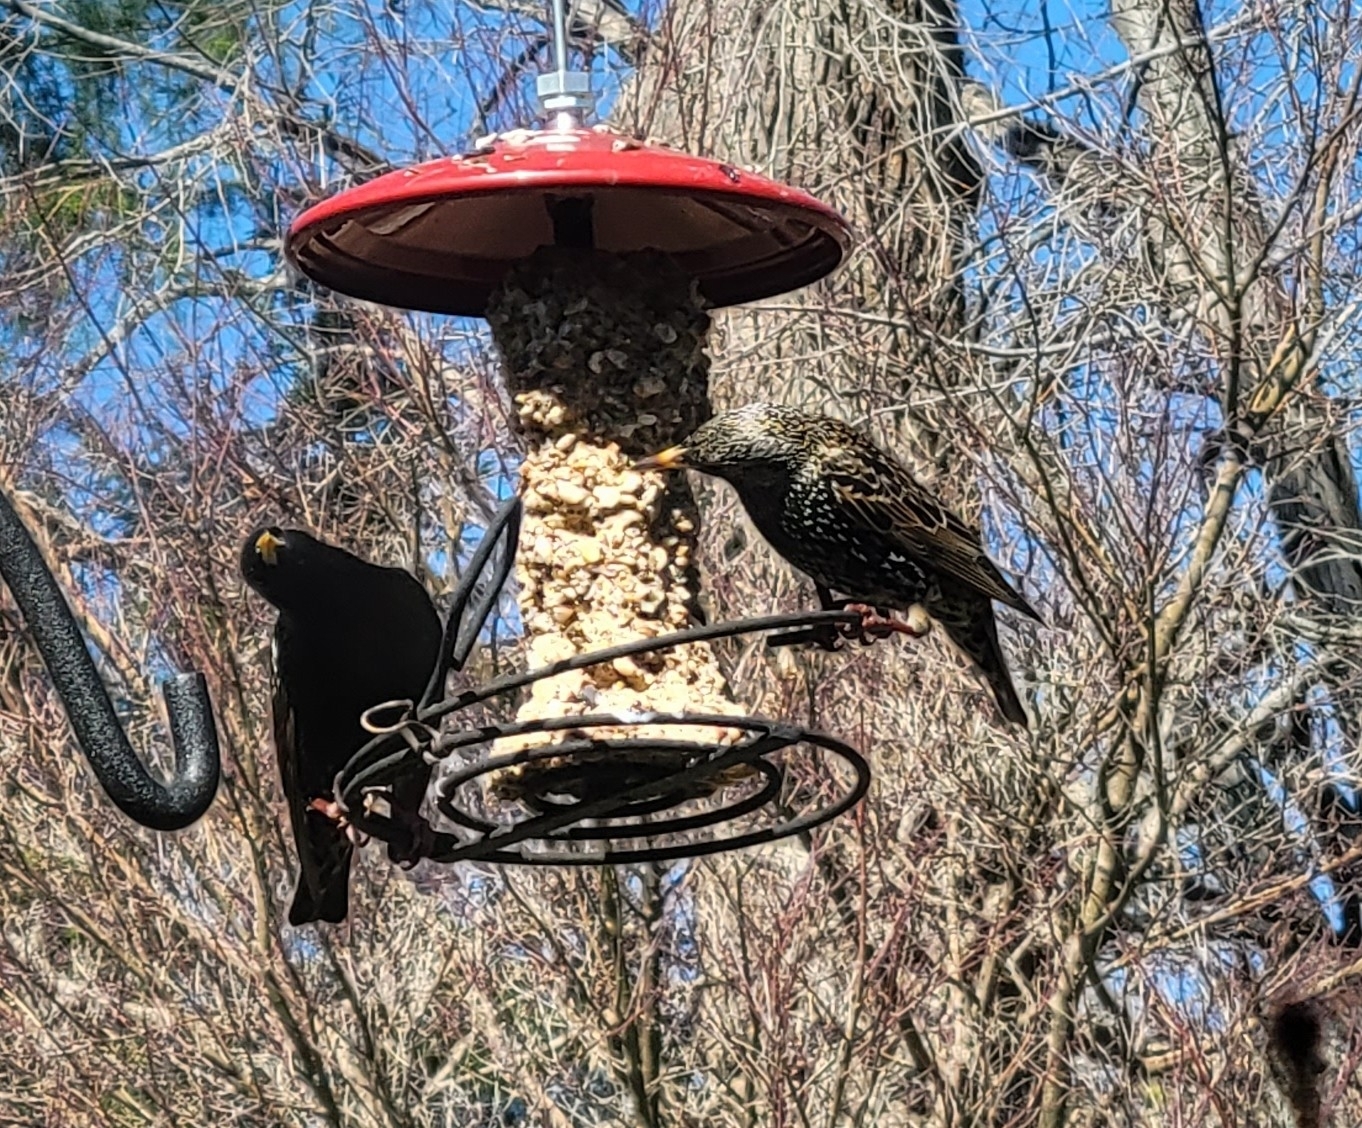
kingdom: Animalia
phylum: Chordata
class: Aves
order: Passeriformes
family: Sturnidae
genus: Sturnus
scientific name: Sturnus vulgaris
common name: Common starling
